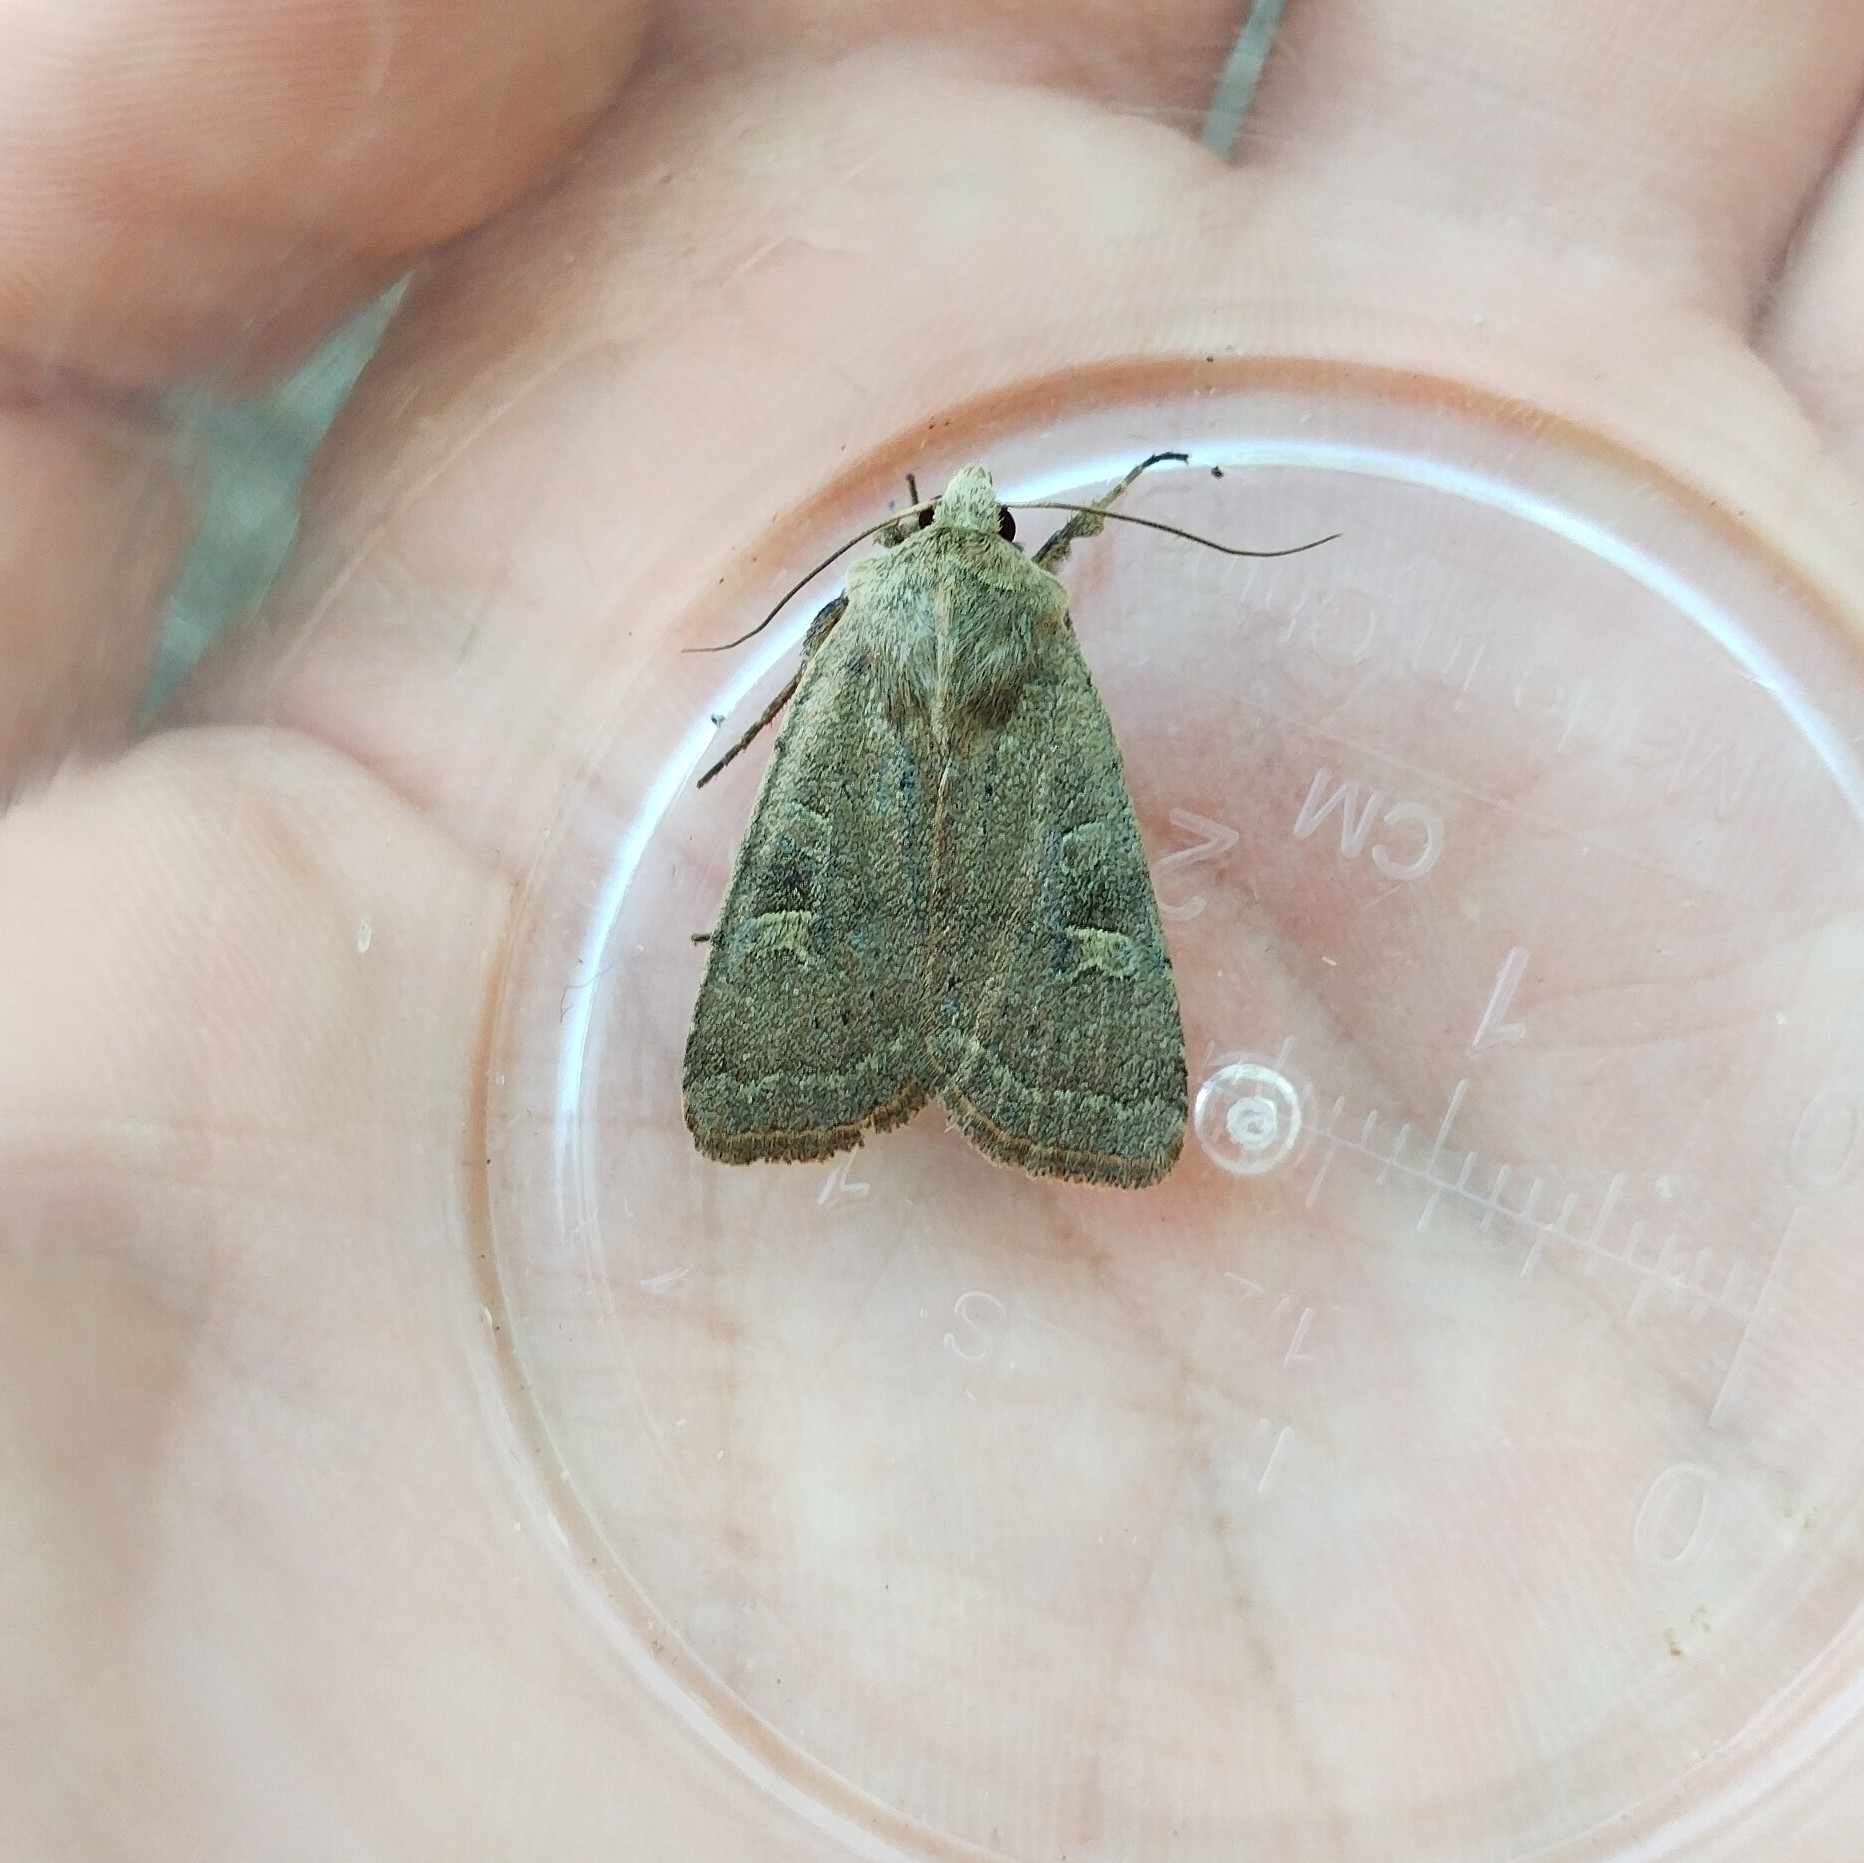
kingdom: Animalia
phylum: Arthropoda
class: Insecta
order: Lepidoptera
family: Noctuidae
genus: Xestia
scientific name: Xestia xanthographa
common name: Square-spot rustic
